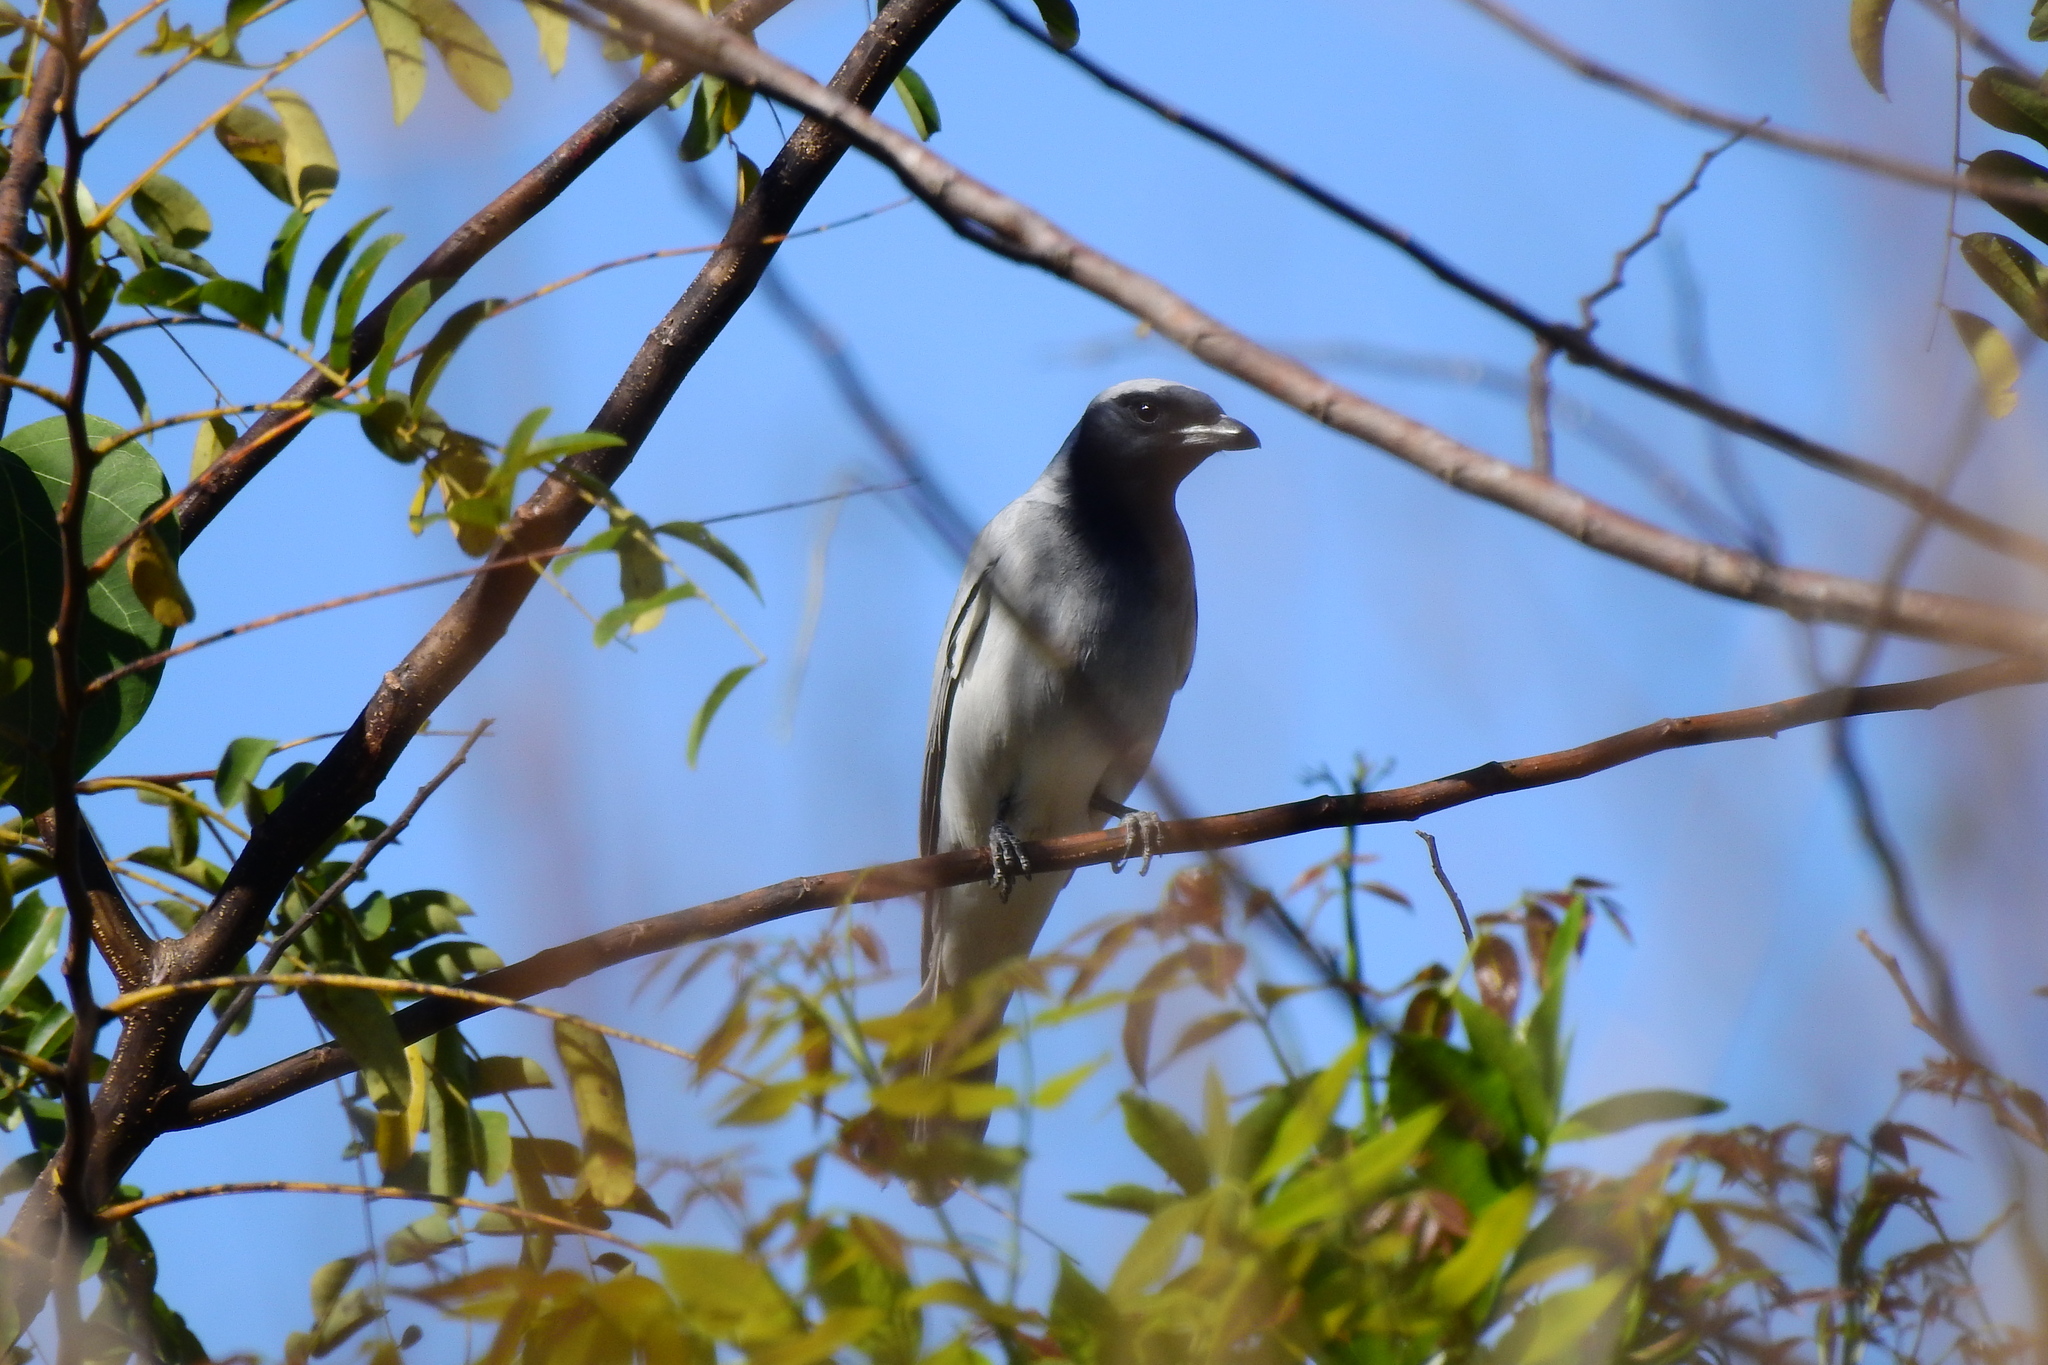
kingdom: Animalia
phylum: Chordata
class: Aves
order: Passeriformes
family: Campephagidae
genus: Coracina
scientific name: Coracina novaehollandiae
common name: Black-faced cuckooshrike
